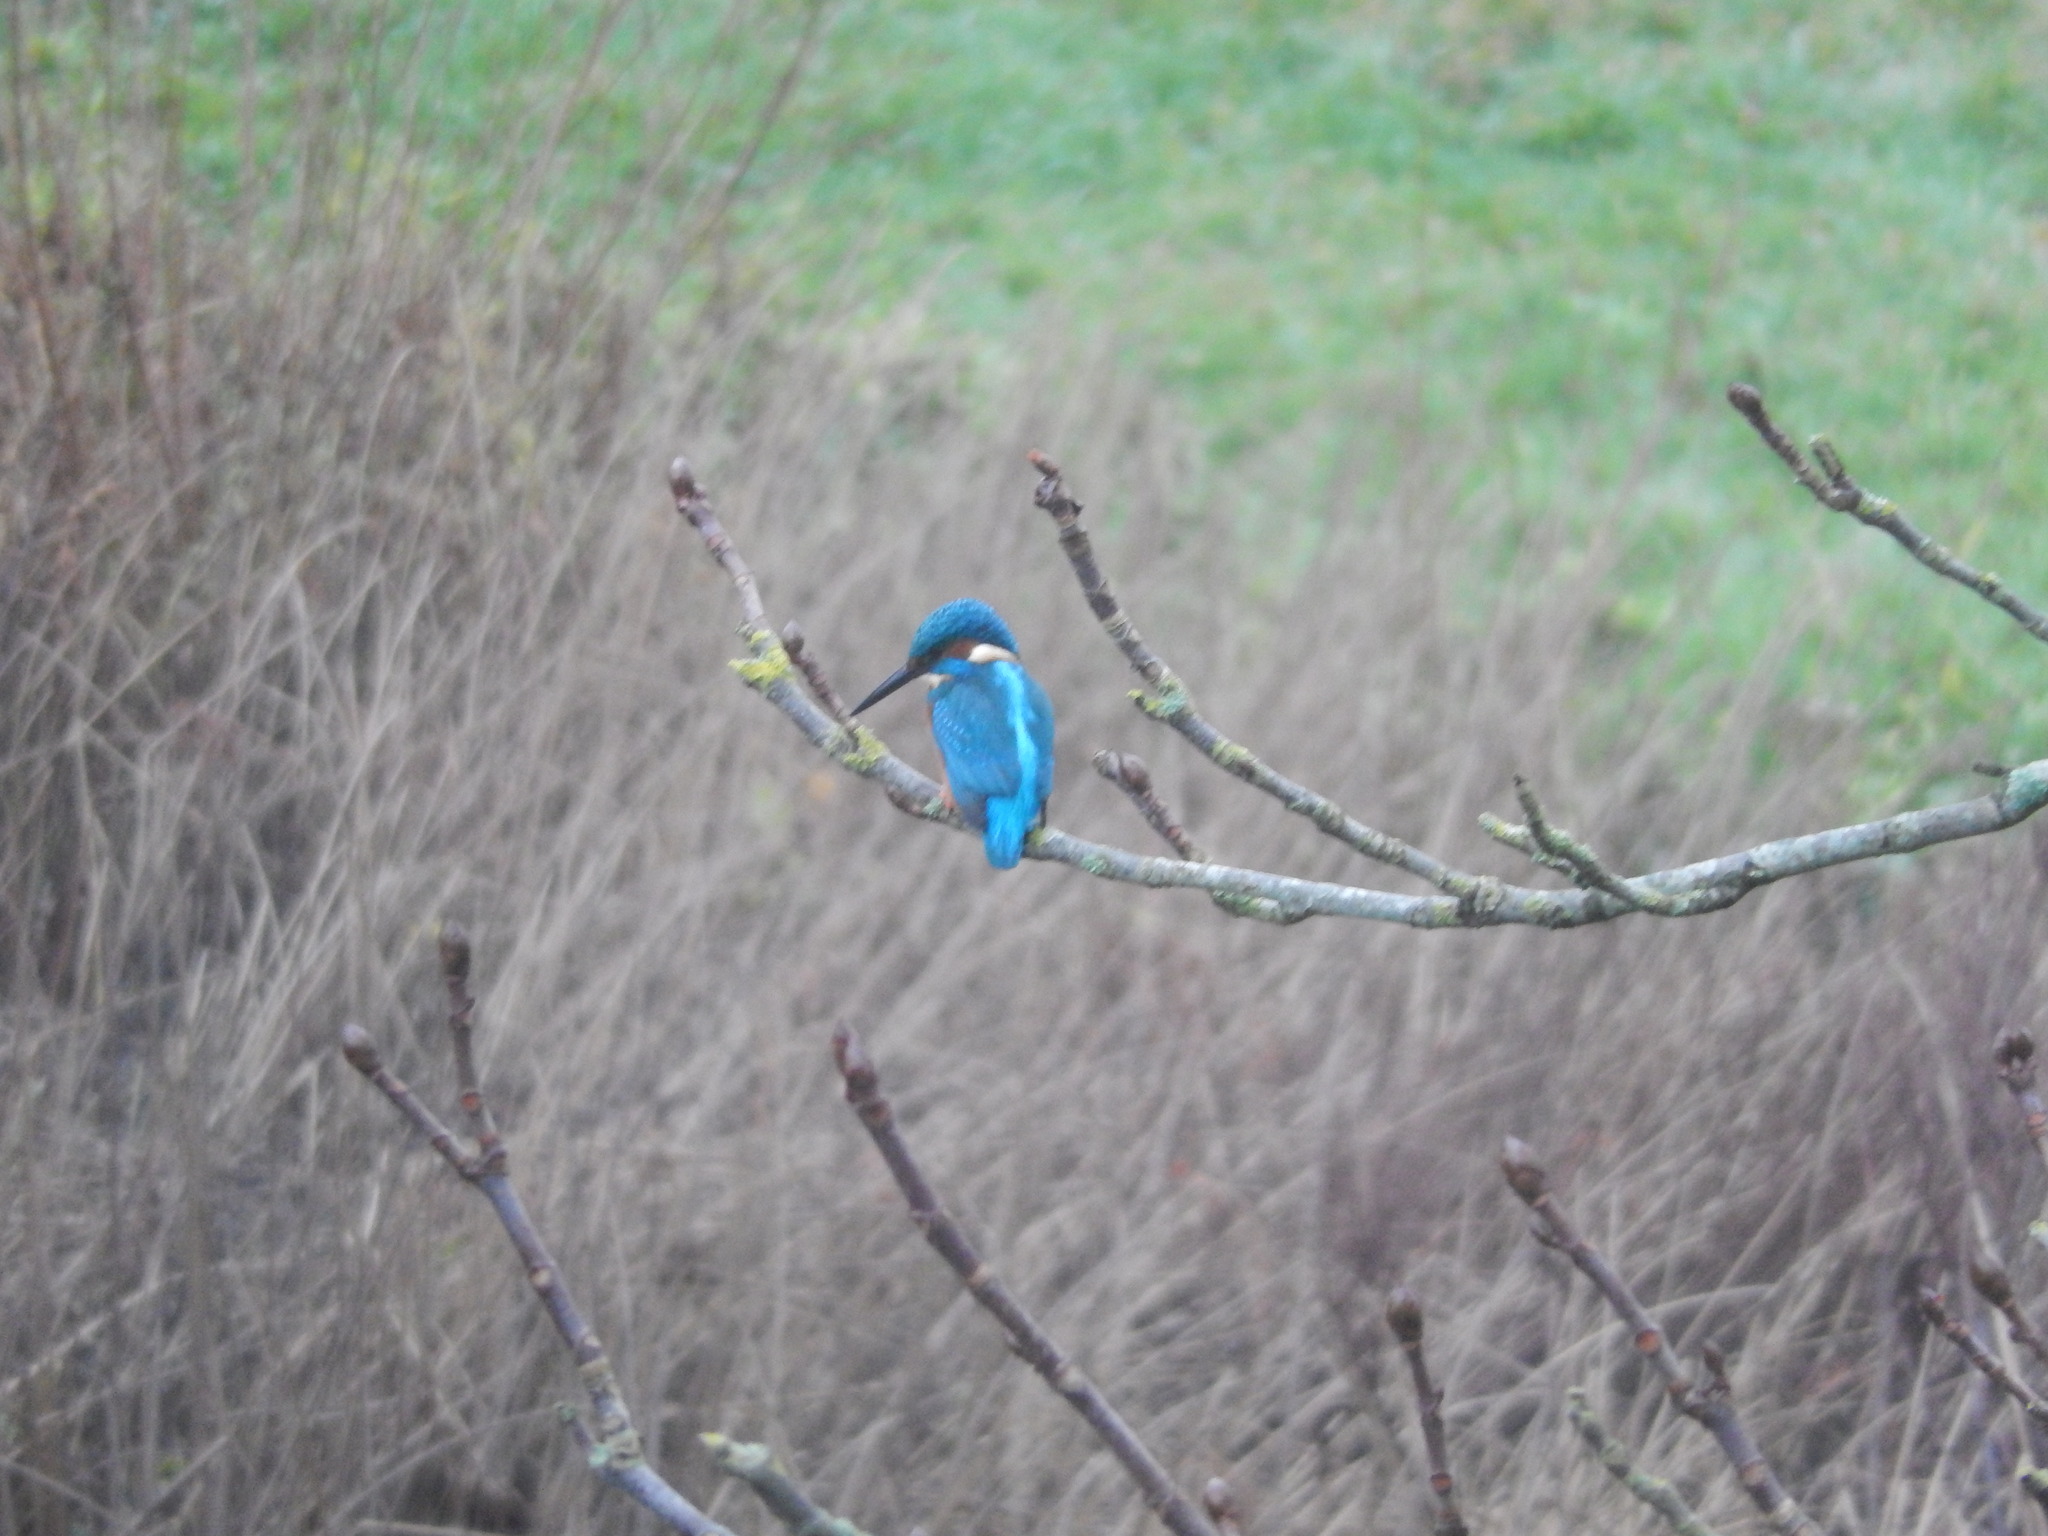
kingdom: Animalia
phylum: Chordata
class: Aves
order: Coraciiformes
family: Alcedinidae
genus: Alcedo
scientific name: Alcedo atthis
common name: Common kingfisher
